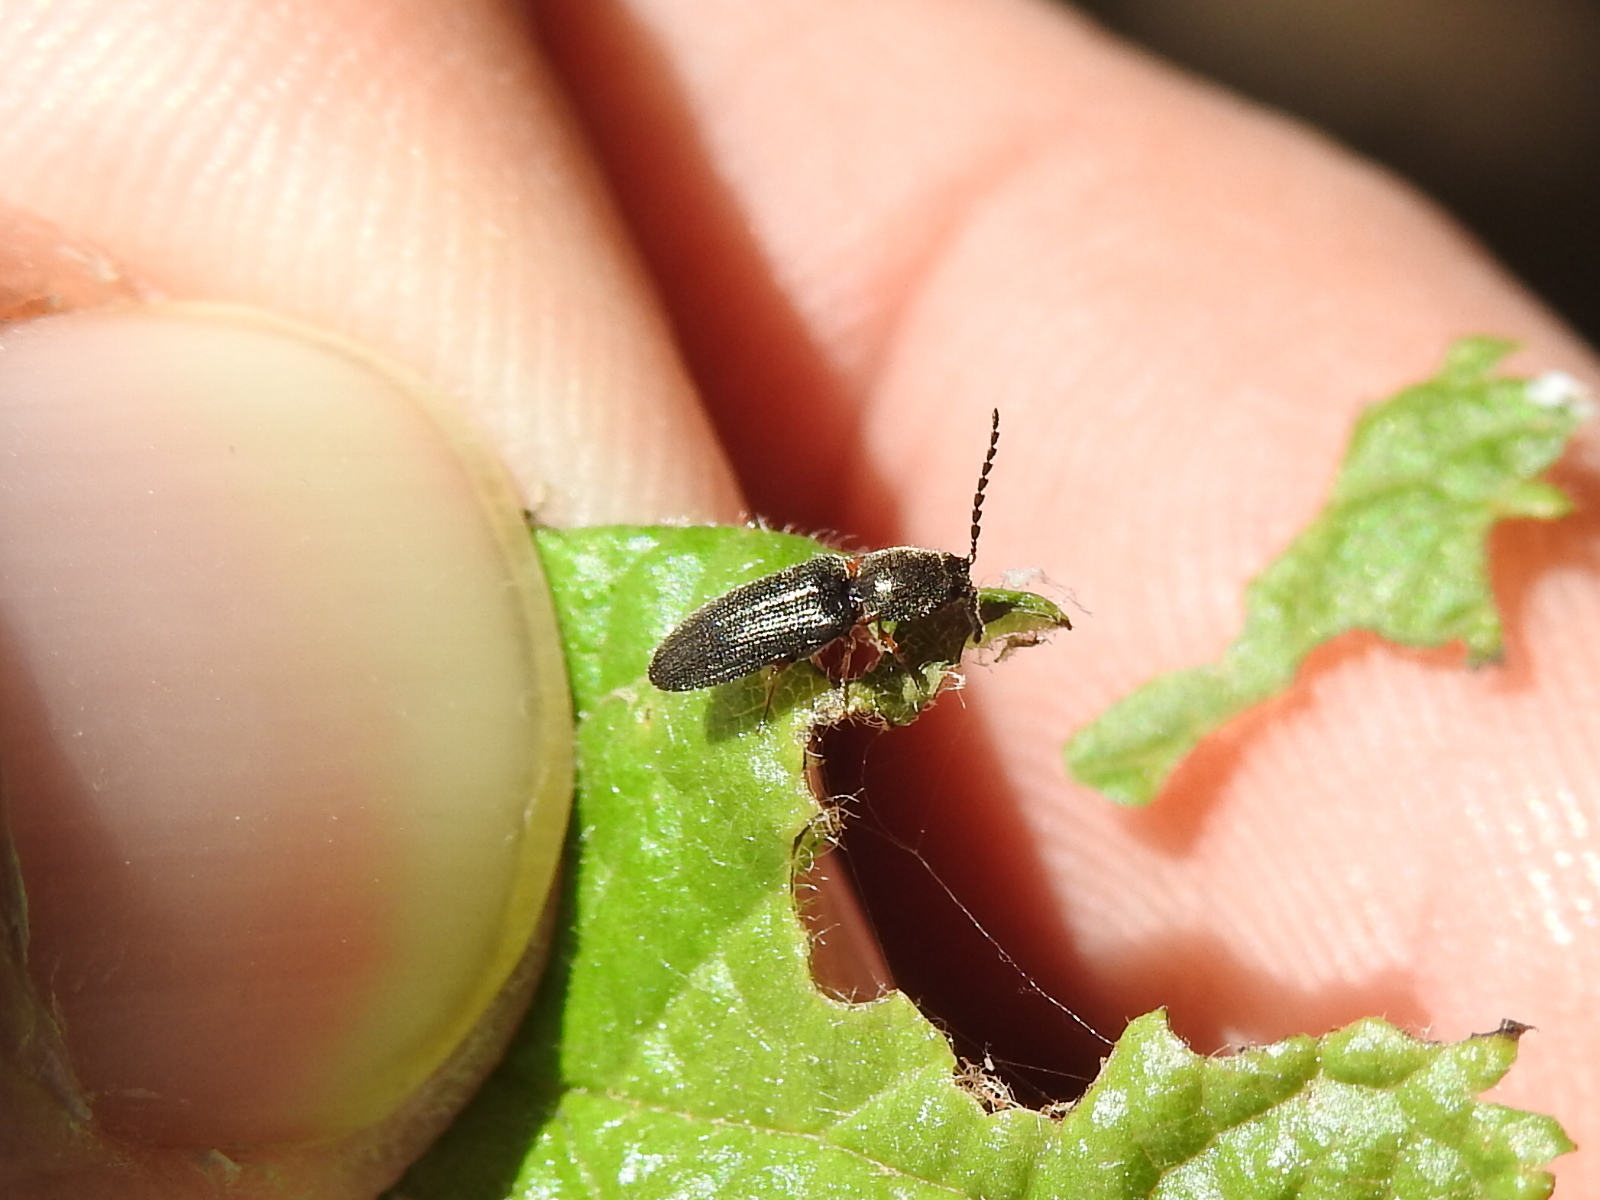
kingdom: Animalia
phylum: Arthropoda
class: Insecta
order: Coleoptera
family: Elateridae
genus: Limonius
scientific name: Limonius basilaris
